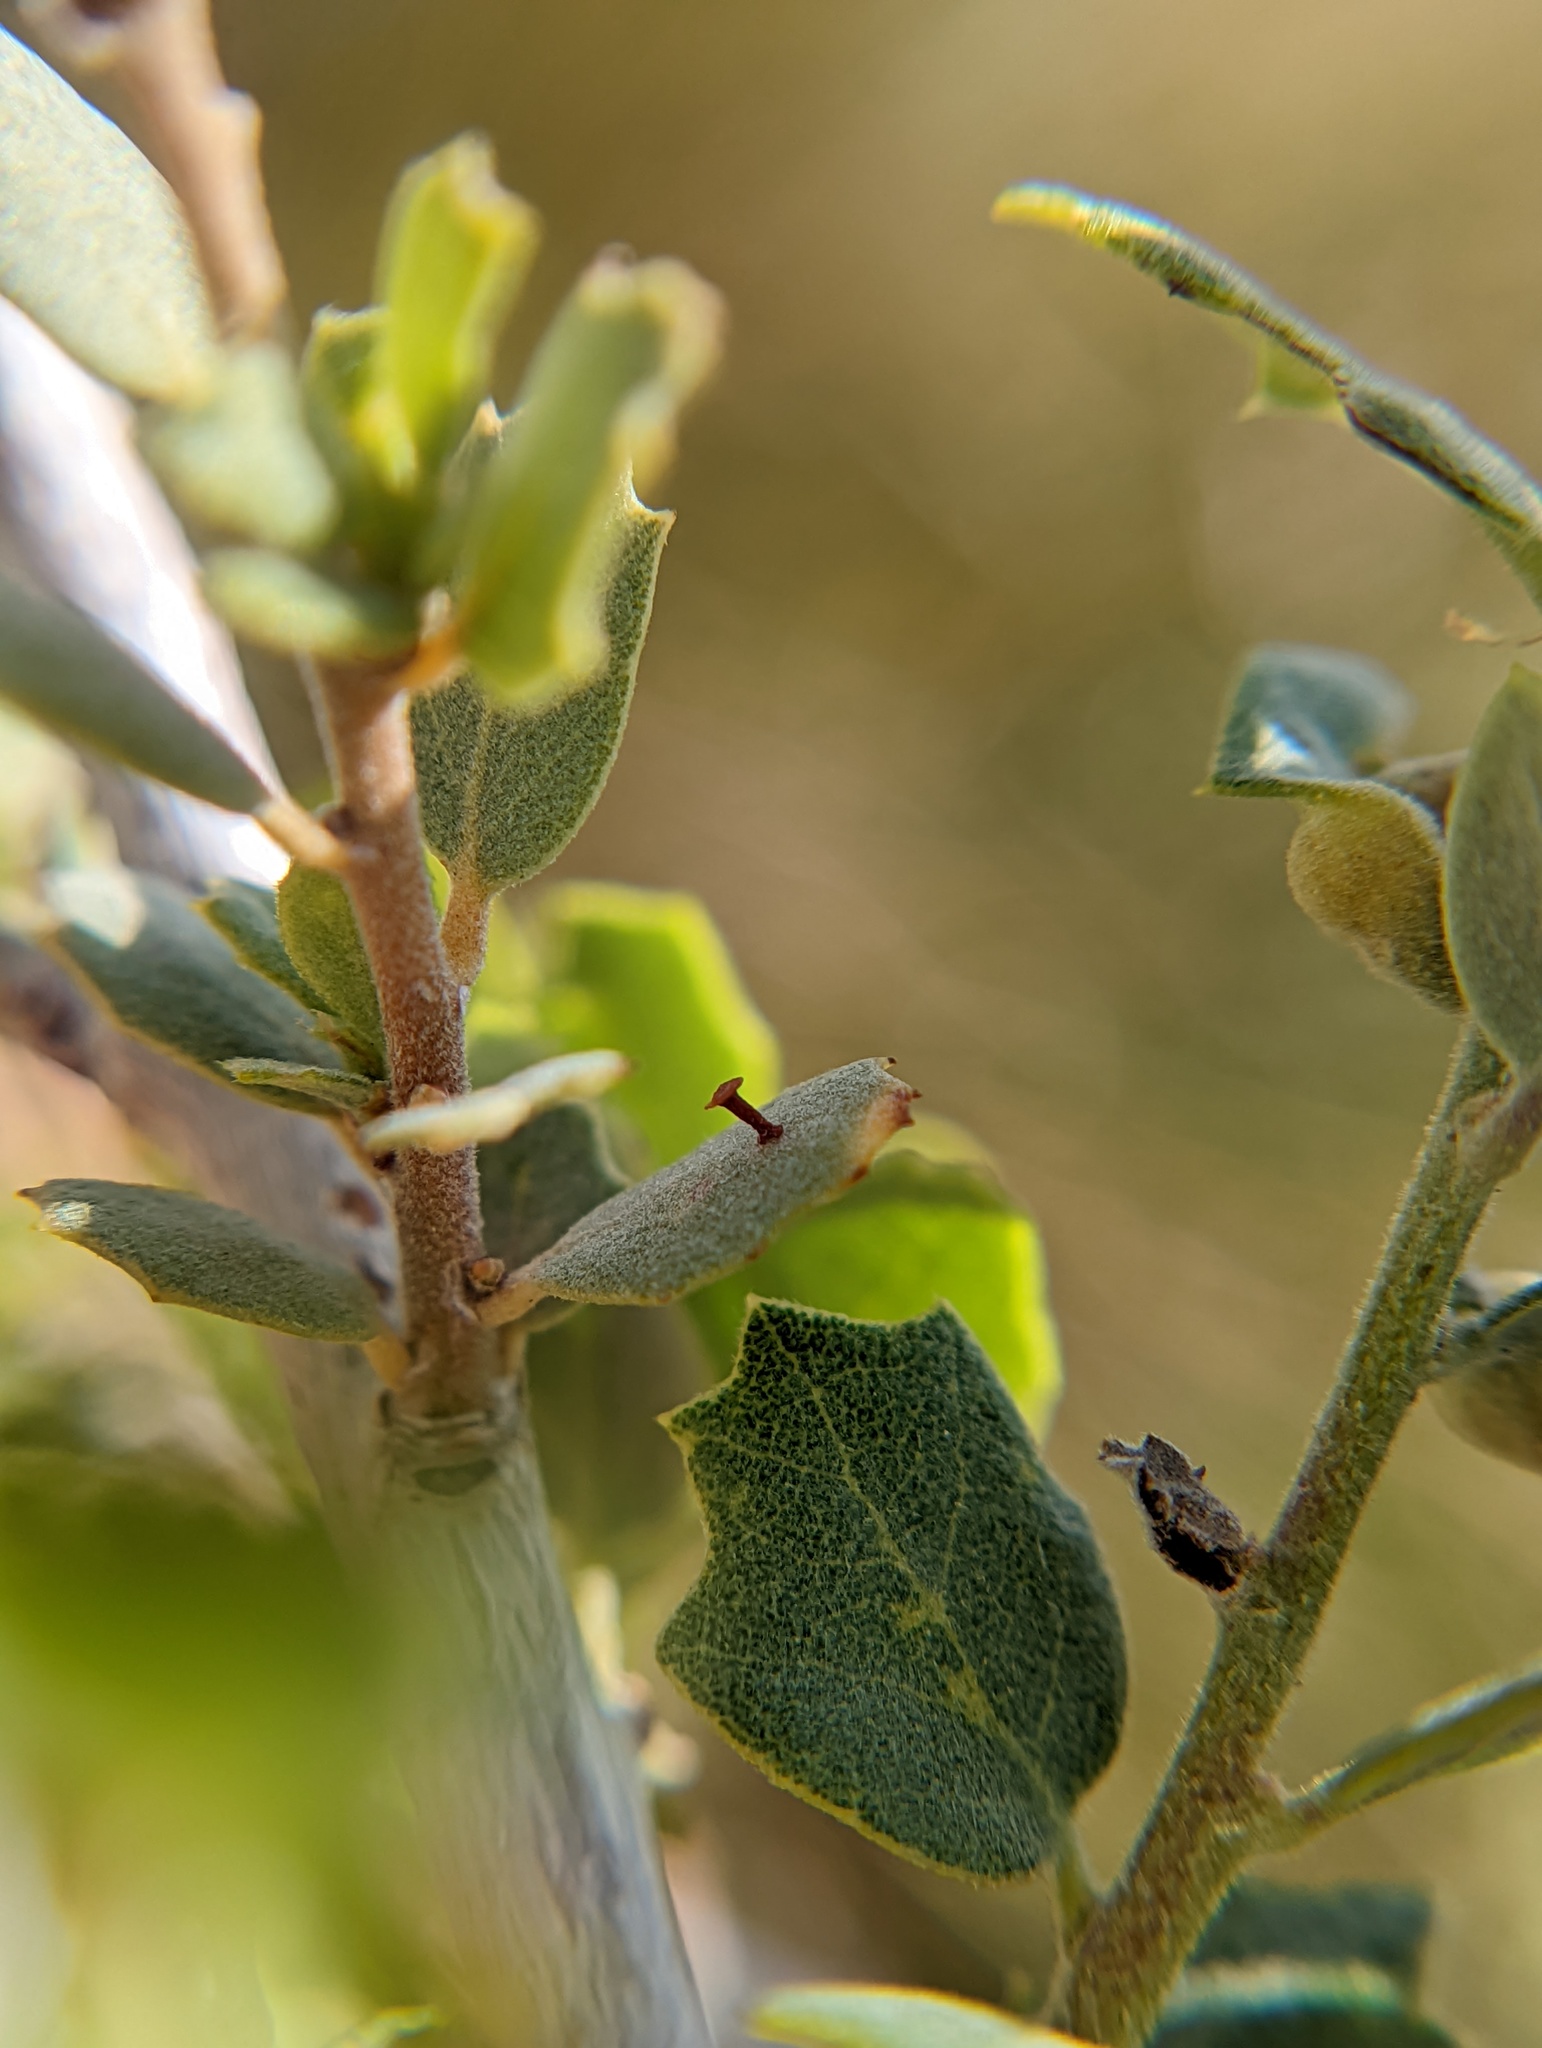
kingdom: Animalia
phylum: Arthropoda
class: Insecta
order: Hymenoptera
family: Cynipidae
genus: Andricus
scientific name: Andricus
